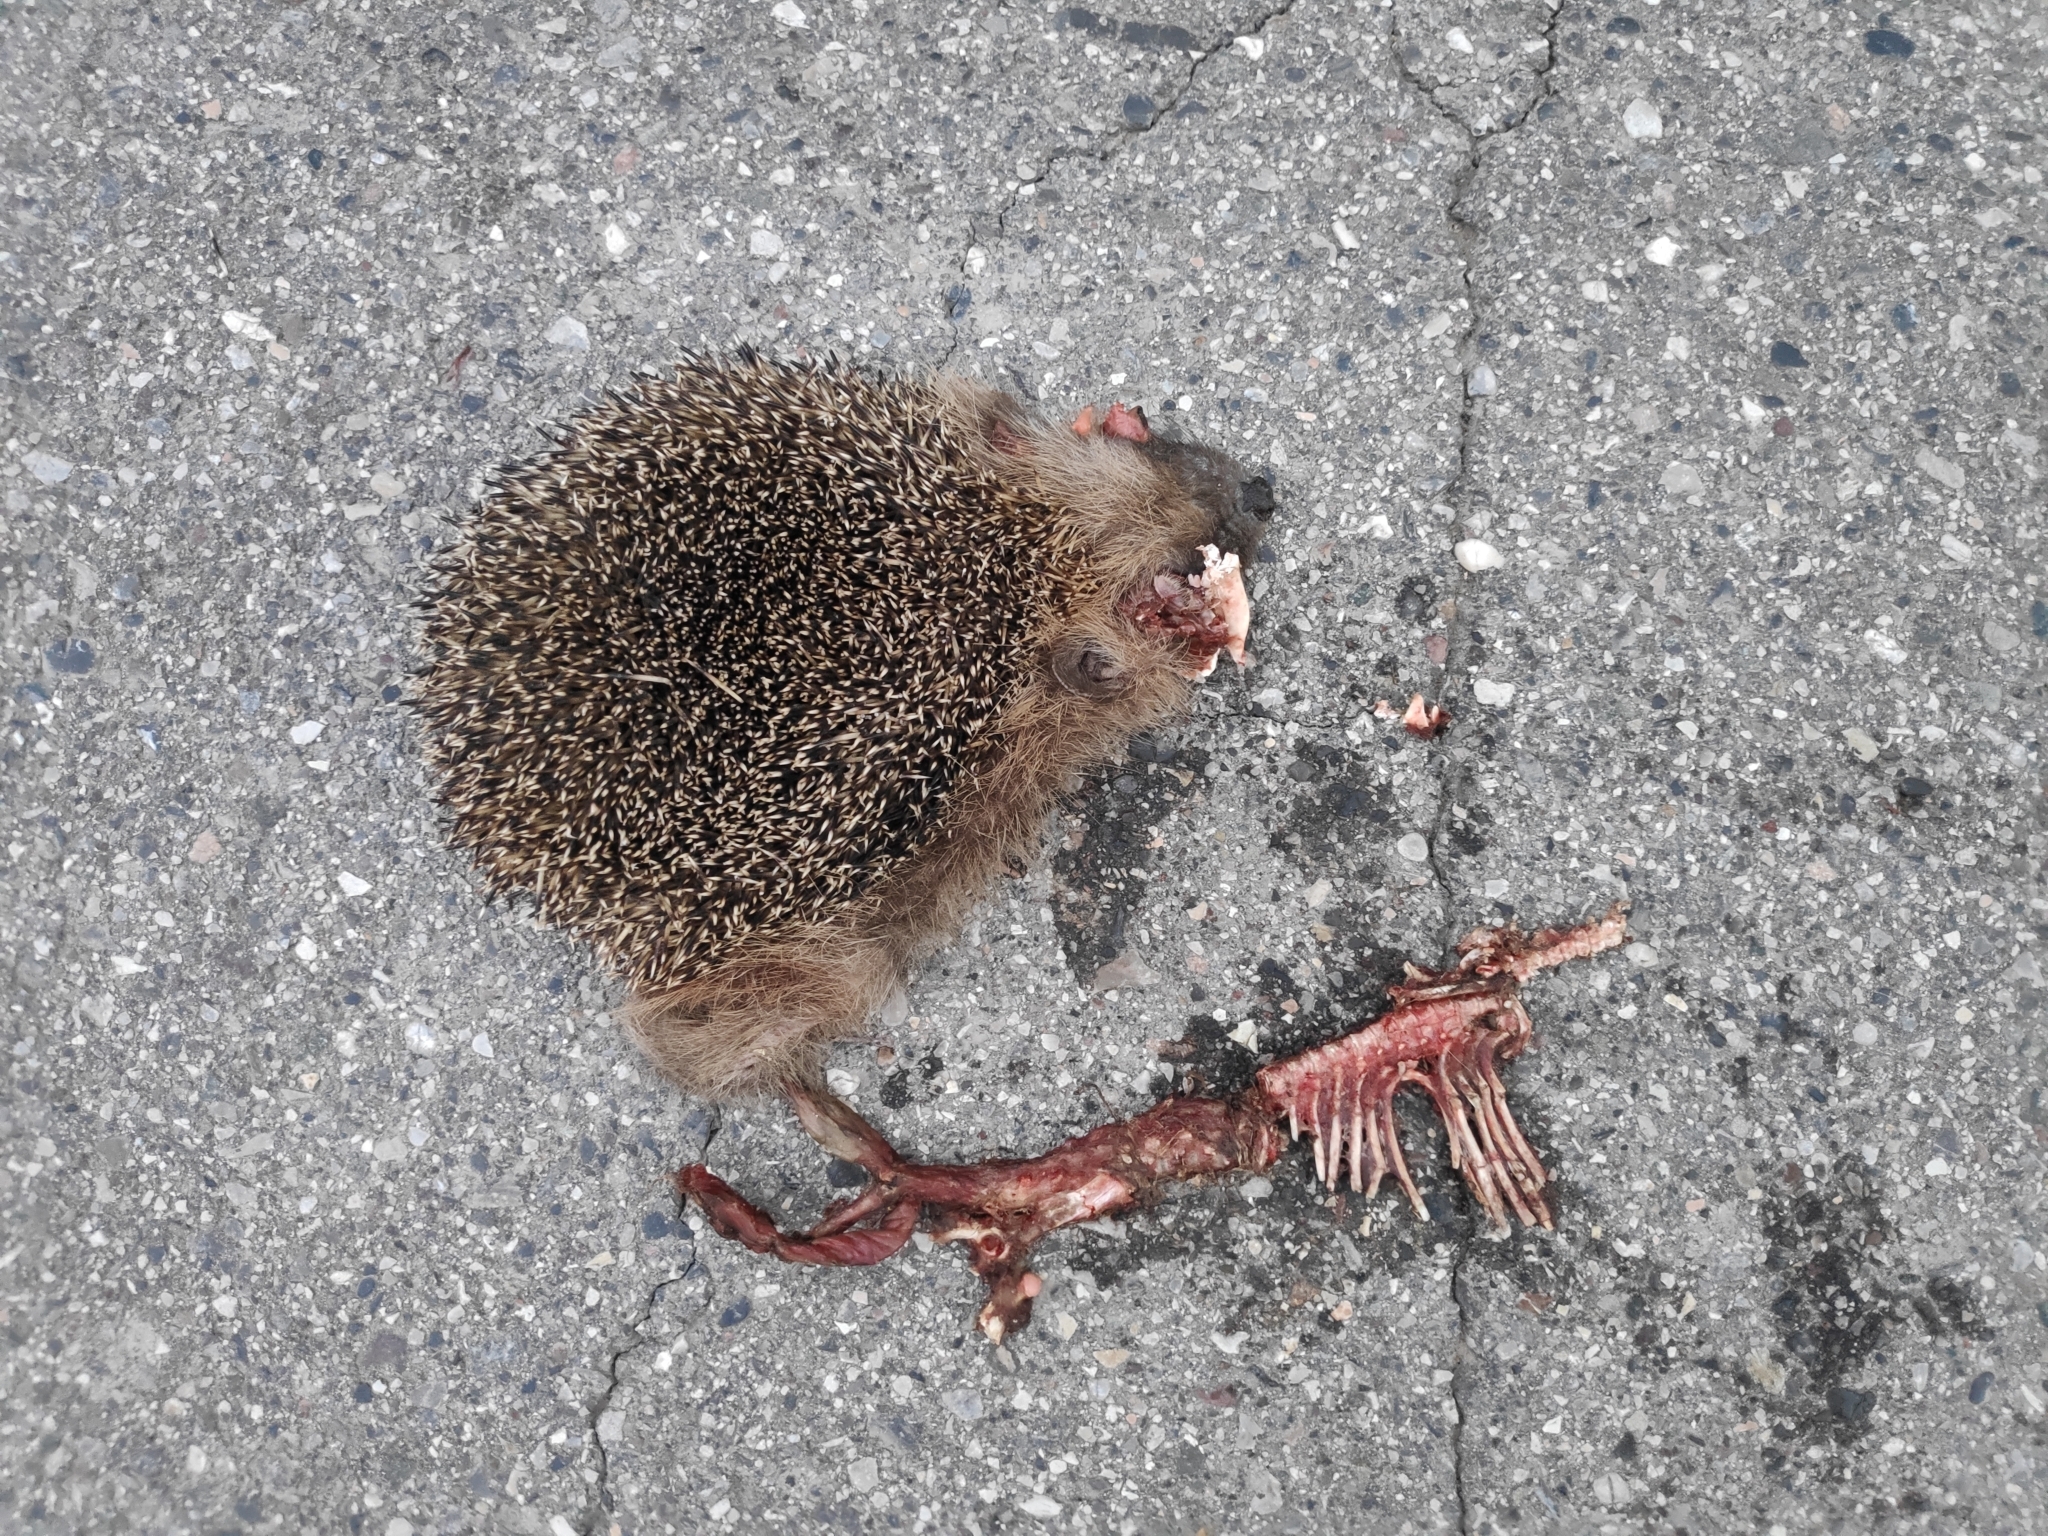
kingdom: Animalia
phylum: Chordata
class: Mammalia
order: Erinaceomorpha
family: Erinaceidae
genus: Erinaceus
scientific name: Erinaceus europaeus
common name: West european hedgehog
